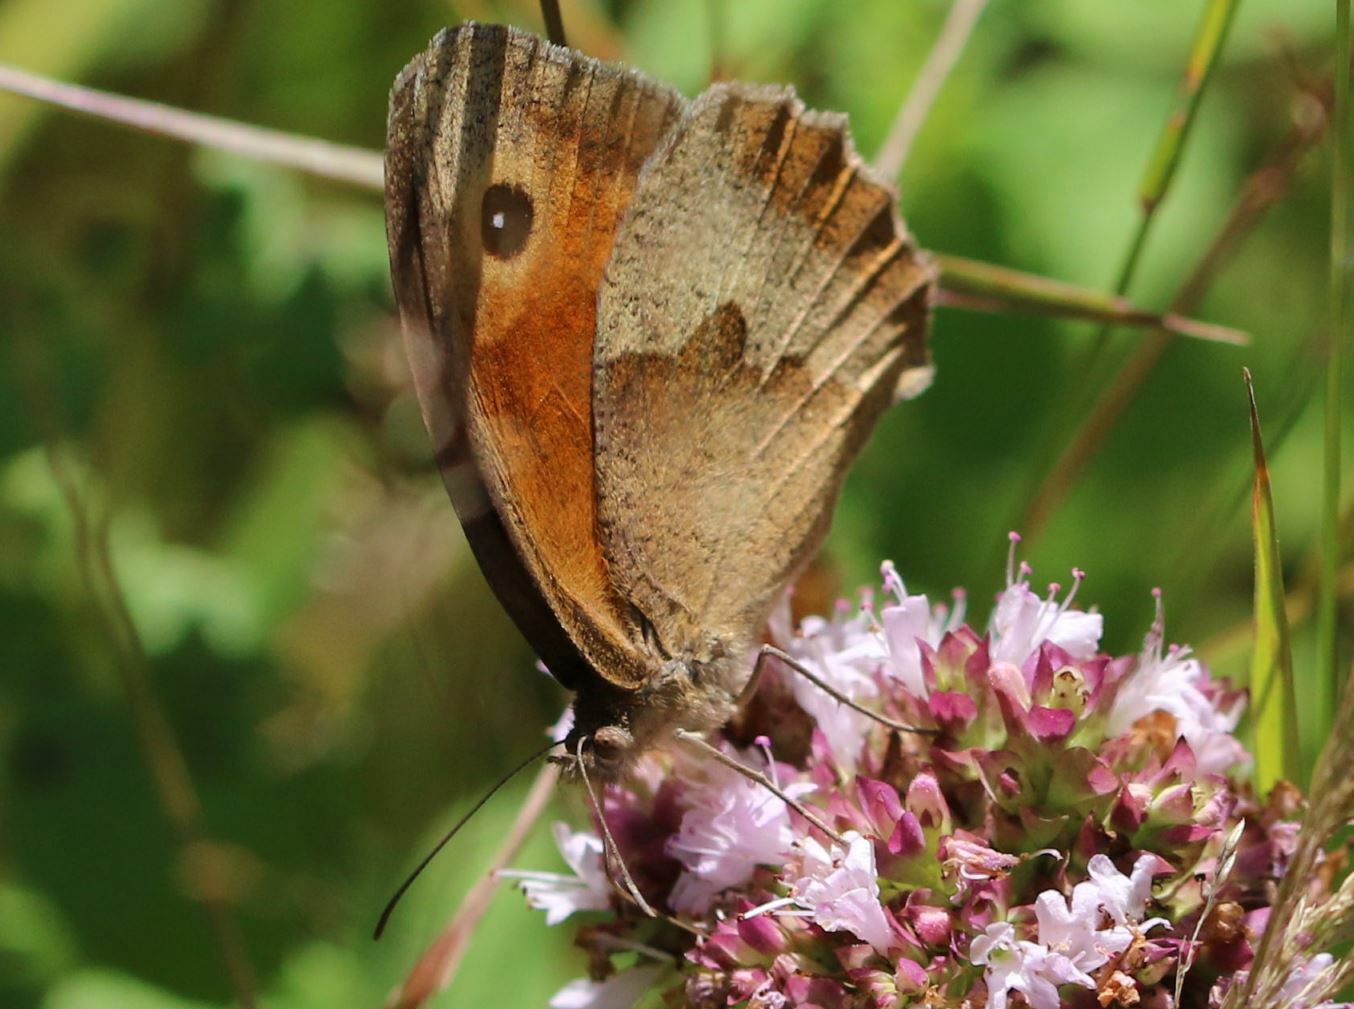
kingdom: Animalia
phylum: Arthropoda
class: Insecta
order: Lepidoptera
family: Nymphalidae
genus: Maniola
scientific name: Maniola jurtina
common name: Meadow brown
